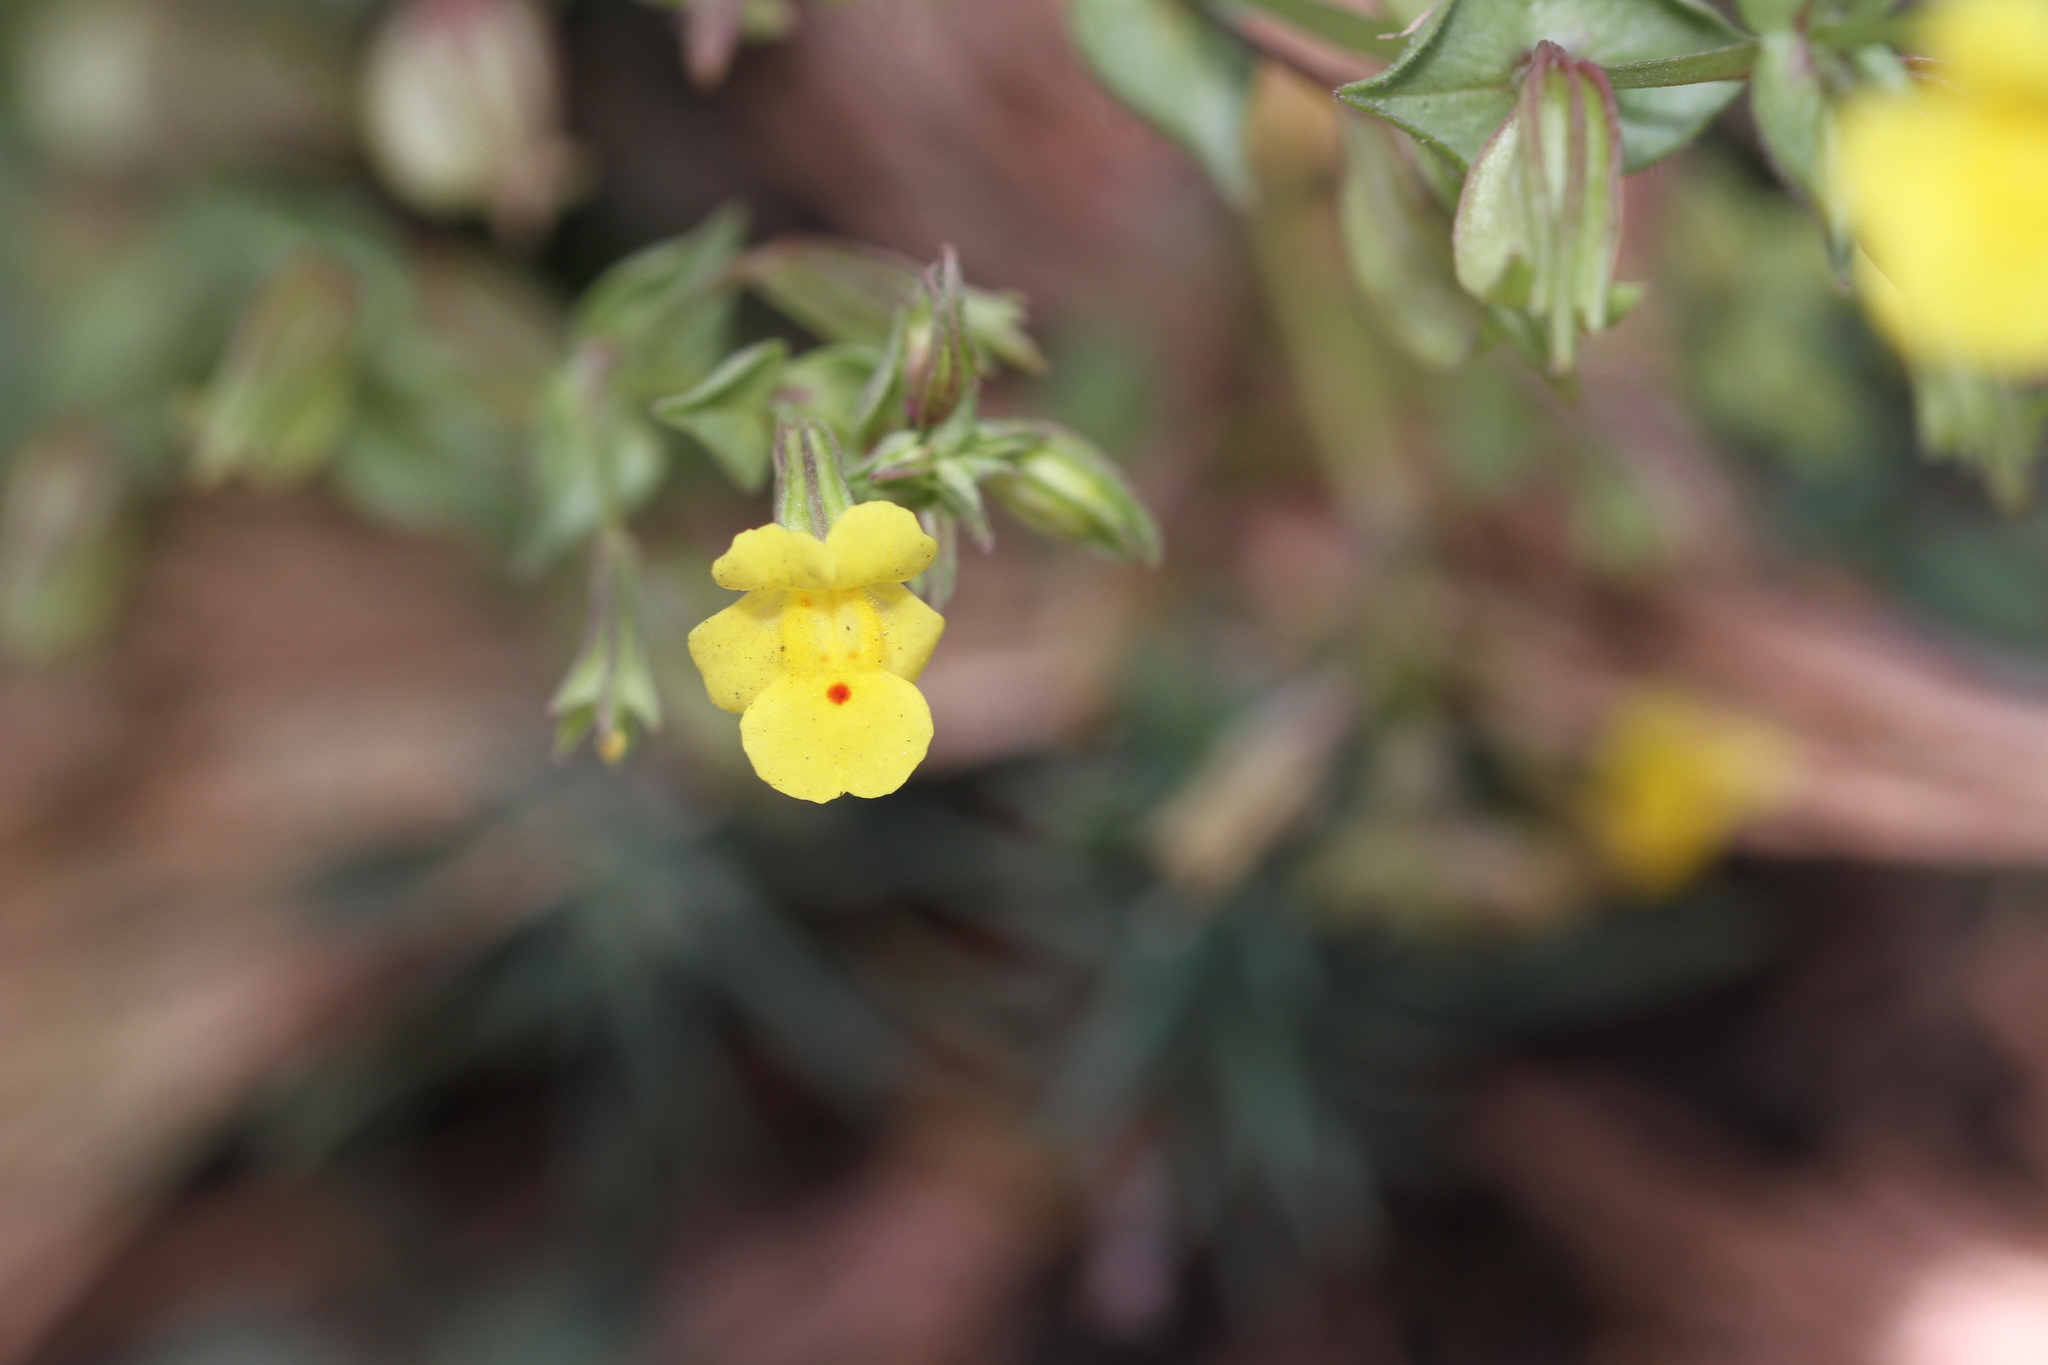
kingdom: Plantae
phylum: Tracheophyta
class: Magnoliopsida
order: Lamiales
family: Phrymaceae
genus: Erythranthe
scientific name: Erythranthe nasuta
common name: Sooke monkeyflower
